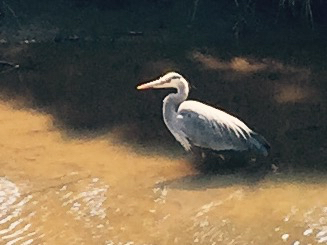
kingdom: Animalia
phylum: Chordata
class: Aves
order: Pelecaniformes
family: Ardeidae
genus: Ardea
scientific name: Ardea herodias
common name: Great blue heron
